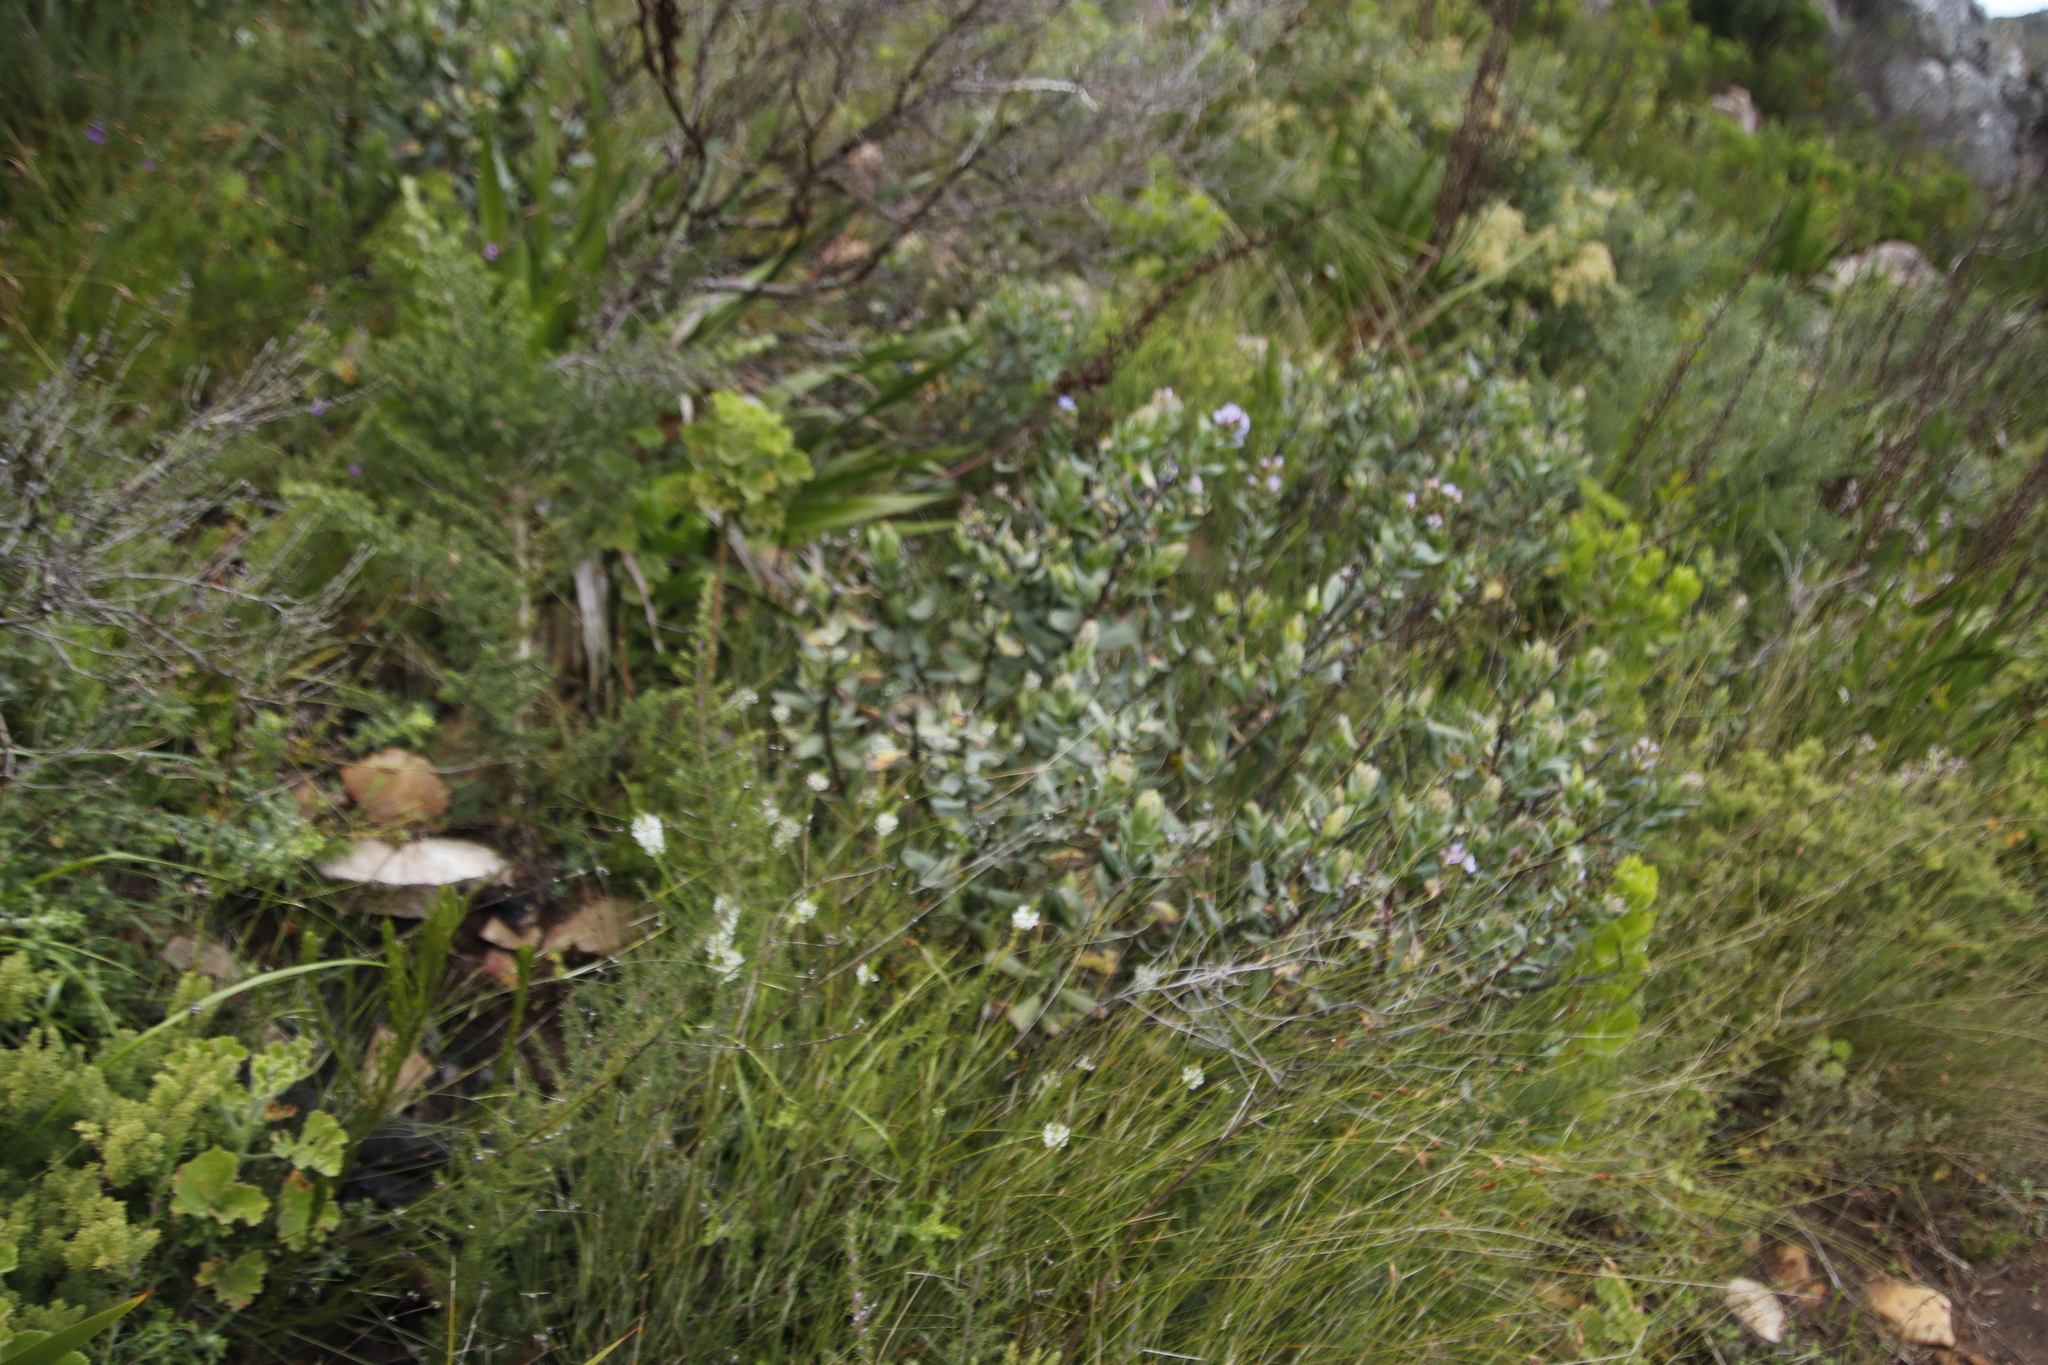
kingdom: Plantae
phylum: Tracheophyta
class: Magnoliopsida
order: Boraginales
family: Boraginaceae
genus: Lobostemon
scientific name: Lobostemon glaucophyllus
